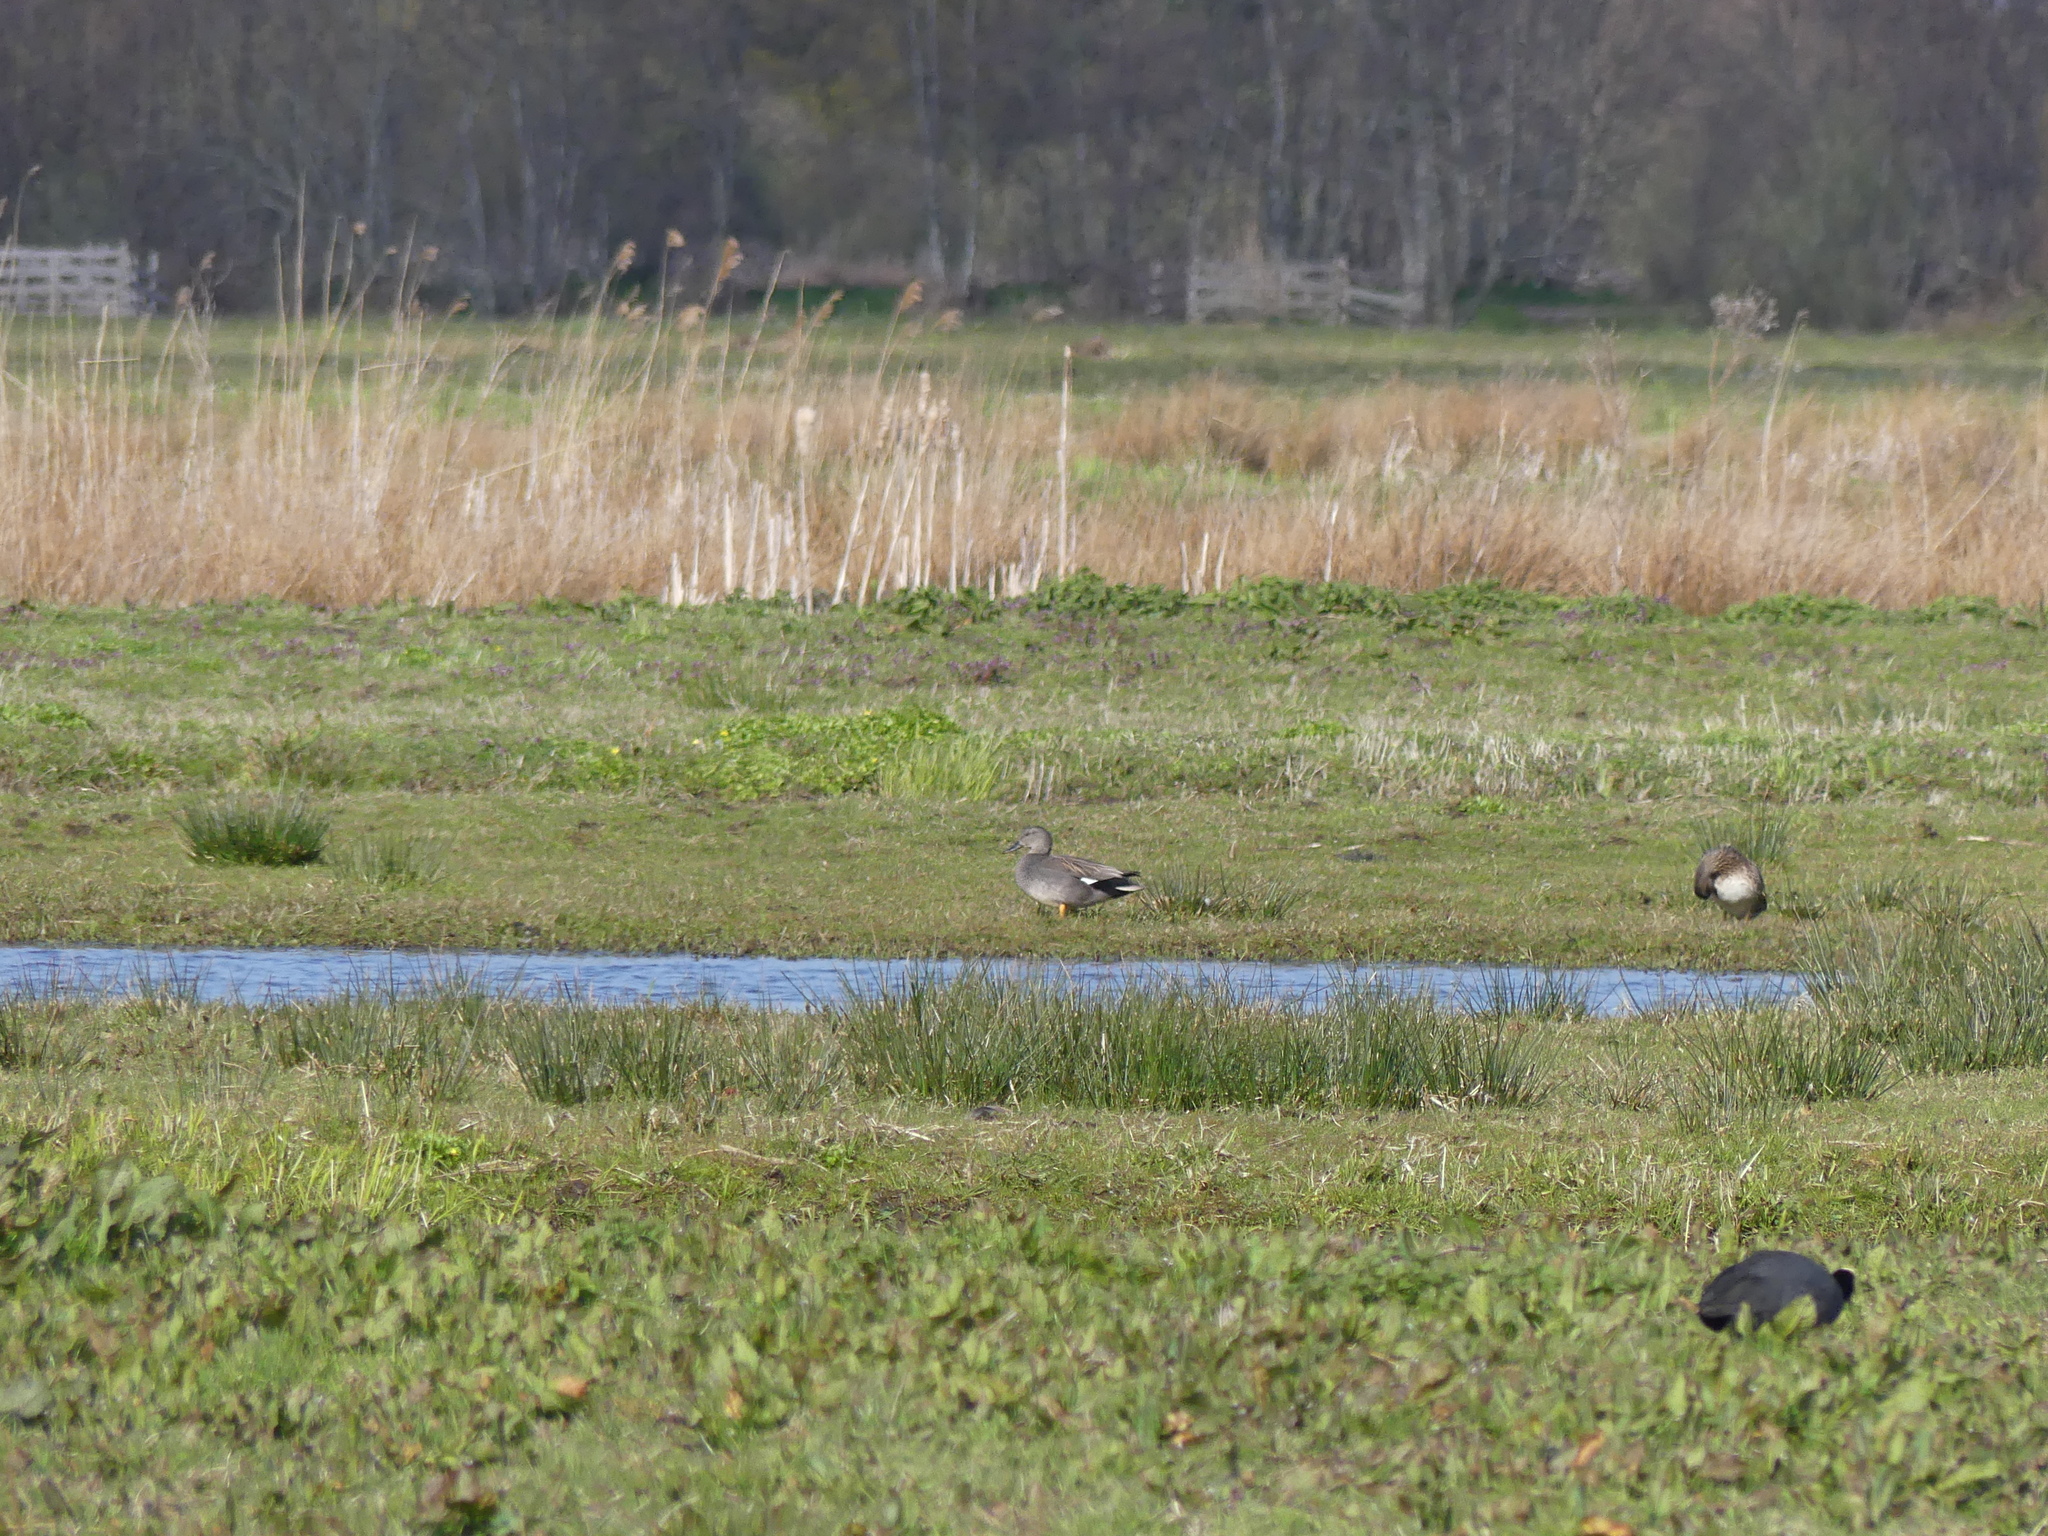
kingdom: Animalia
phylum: Chordata
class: Aves
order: Anseriformes
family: Anatidae
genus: Mareca
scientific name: Mareca strepera
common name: Gadwall
